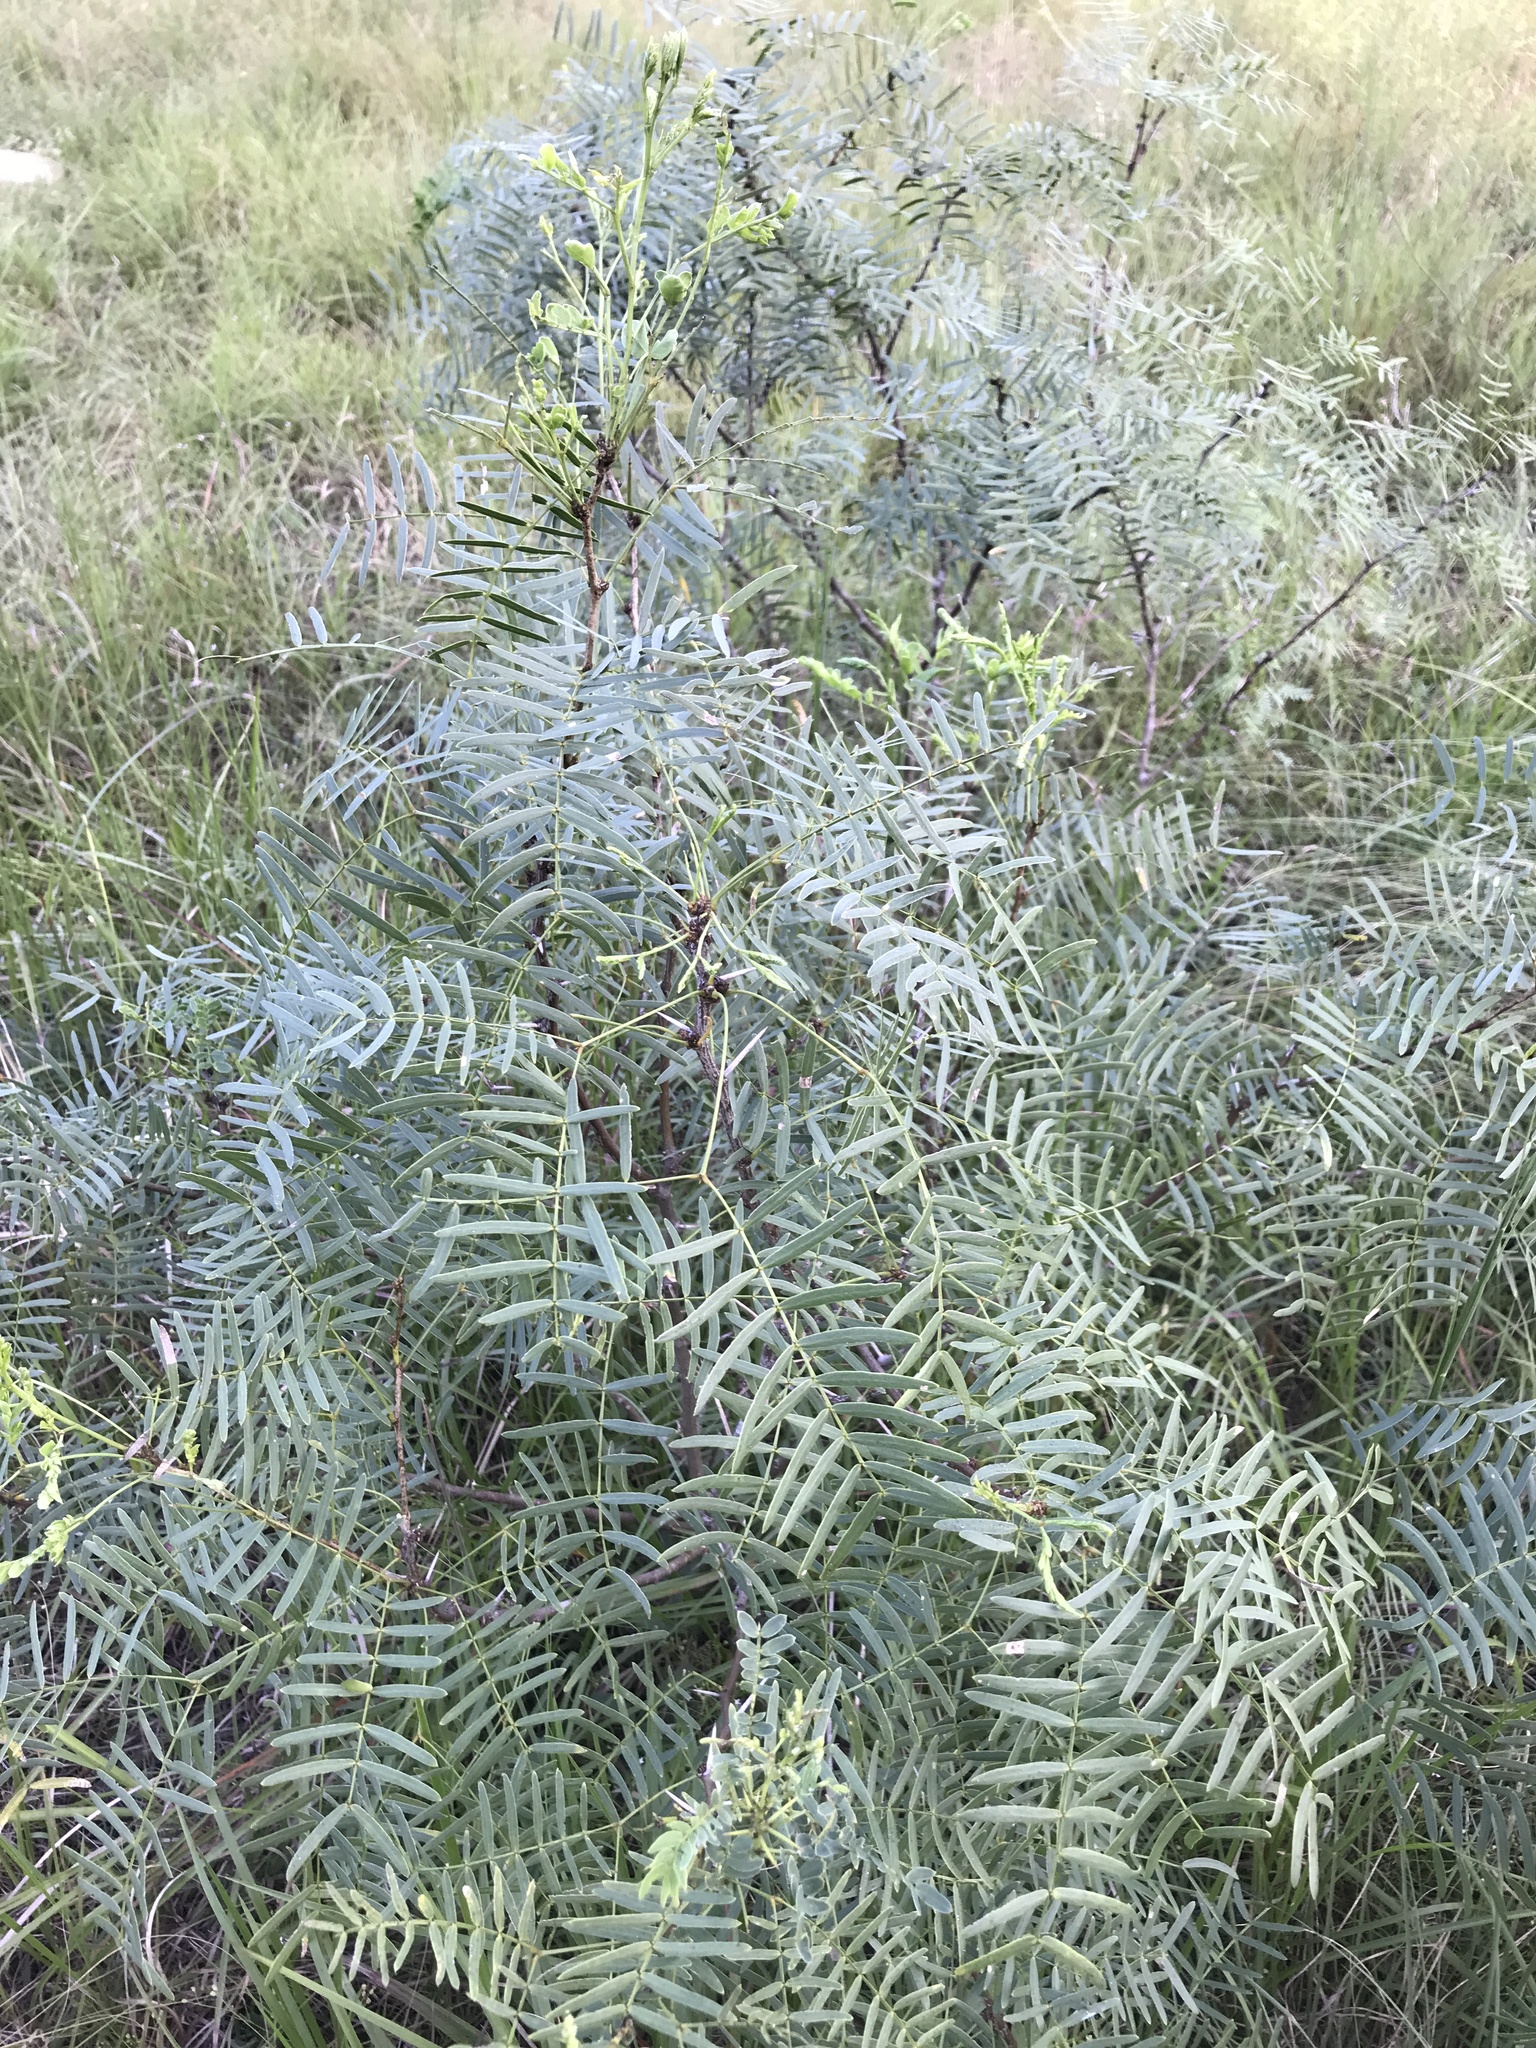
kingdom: Plantae
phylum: Tracheophyta
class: Magnoliopsida
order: Fabales
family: Fabaceae
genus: Prosopis
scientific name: Prosopis glandulosa
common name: Honey mesquite
